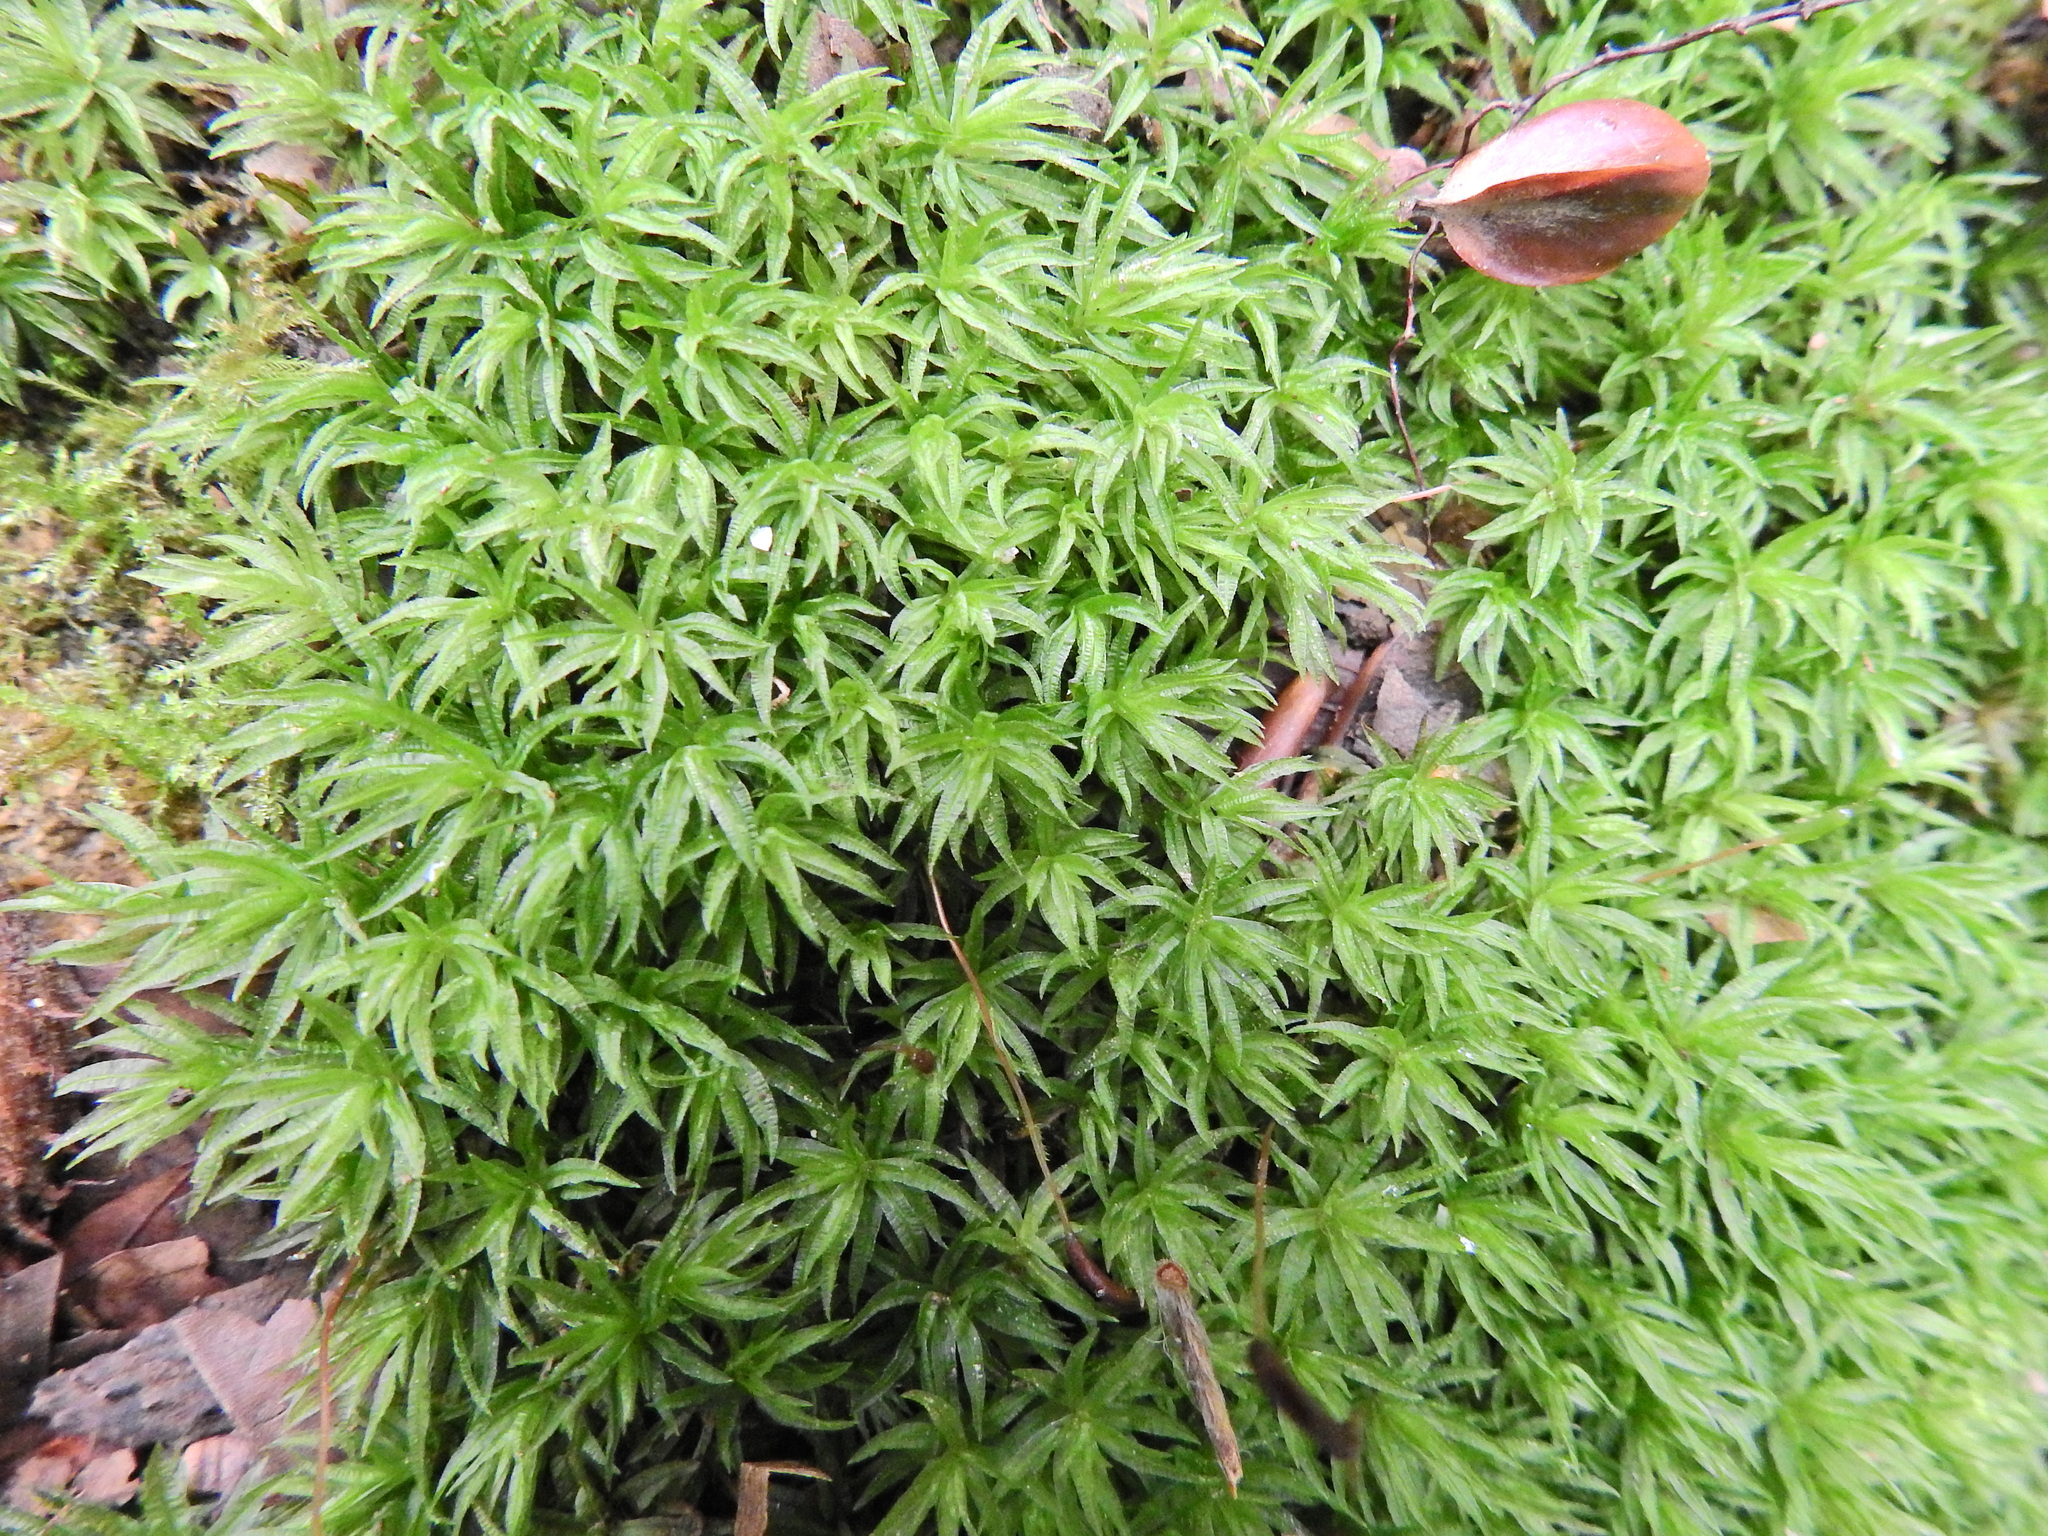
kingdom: Plantae
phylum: Bryophyta
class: Polytrichopsida
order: Polytrichales
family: Polytrichaceae
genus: Atrichum
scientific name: Atrichum undulatum
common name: Common smoothcap
